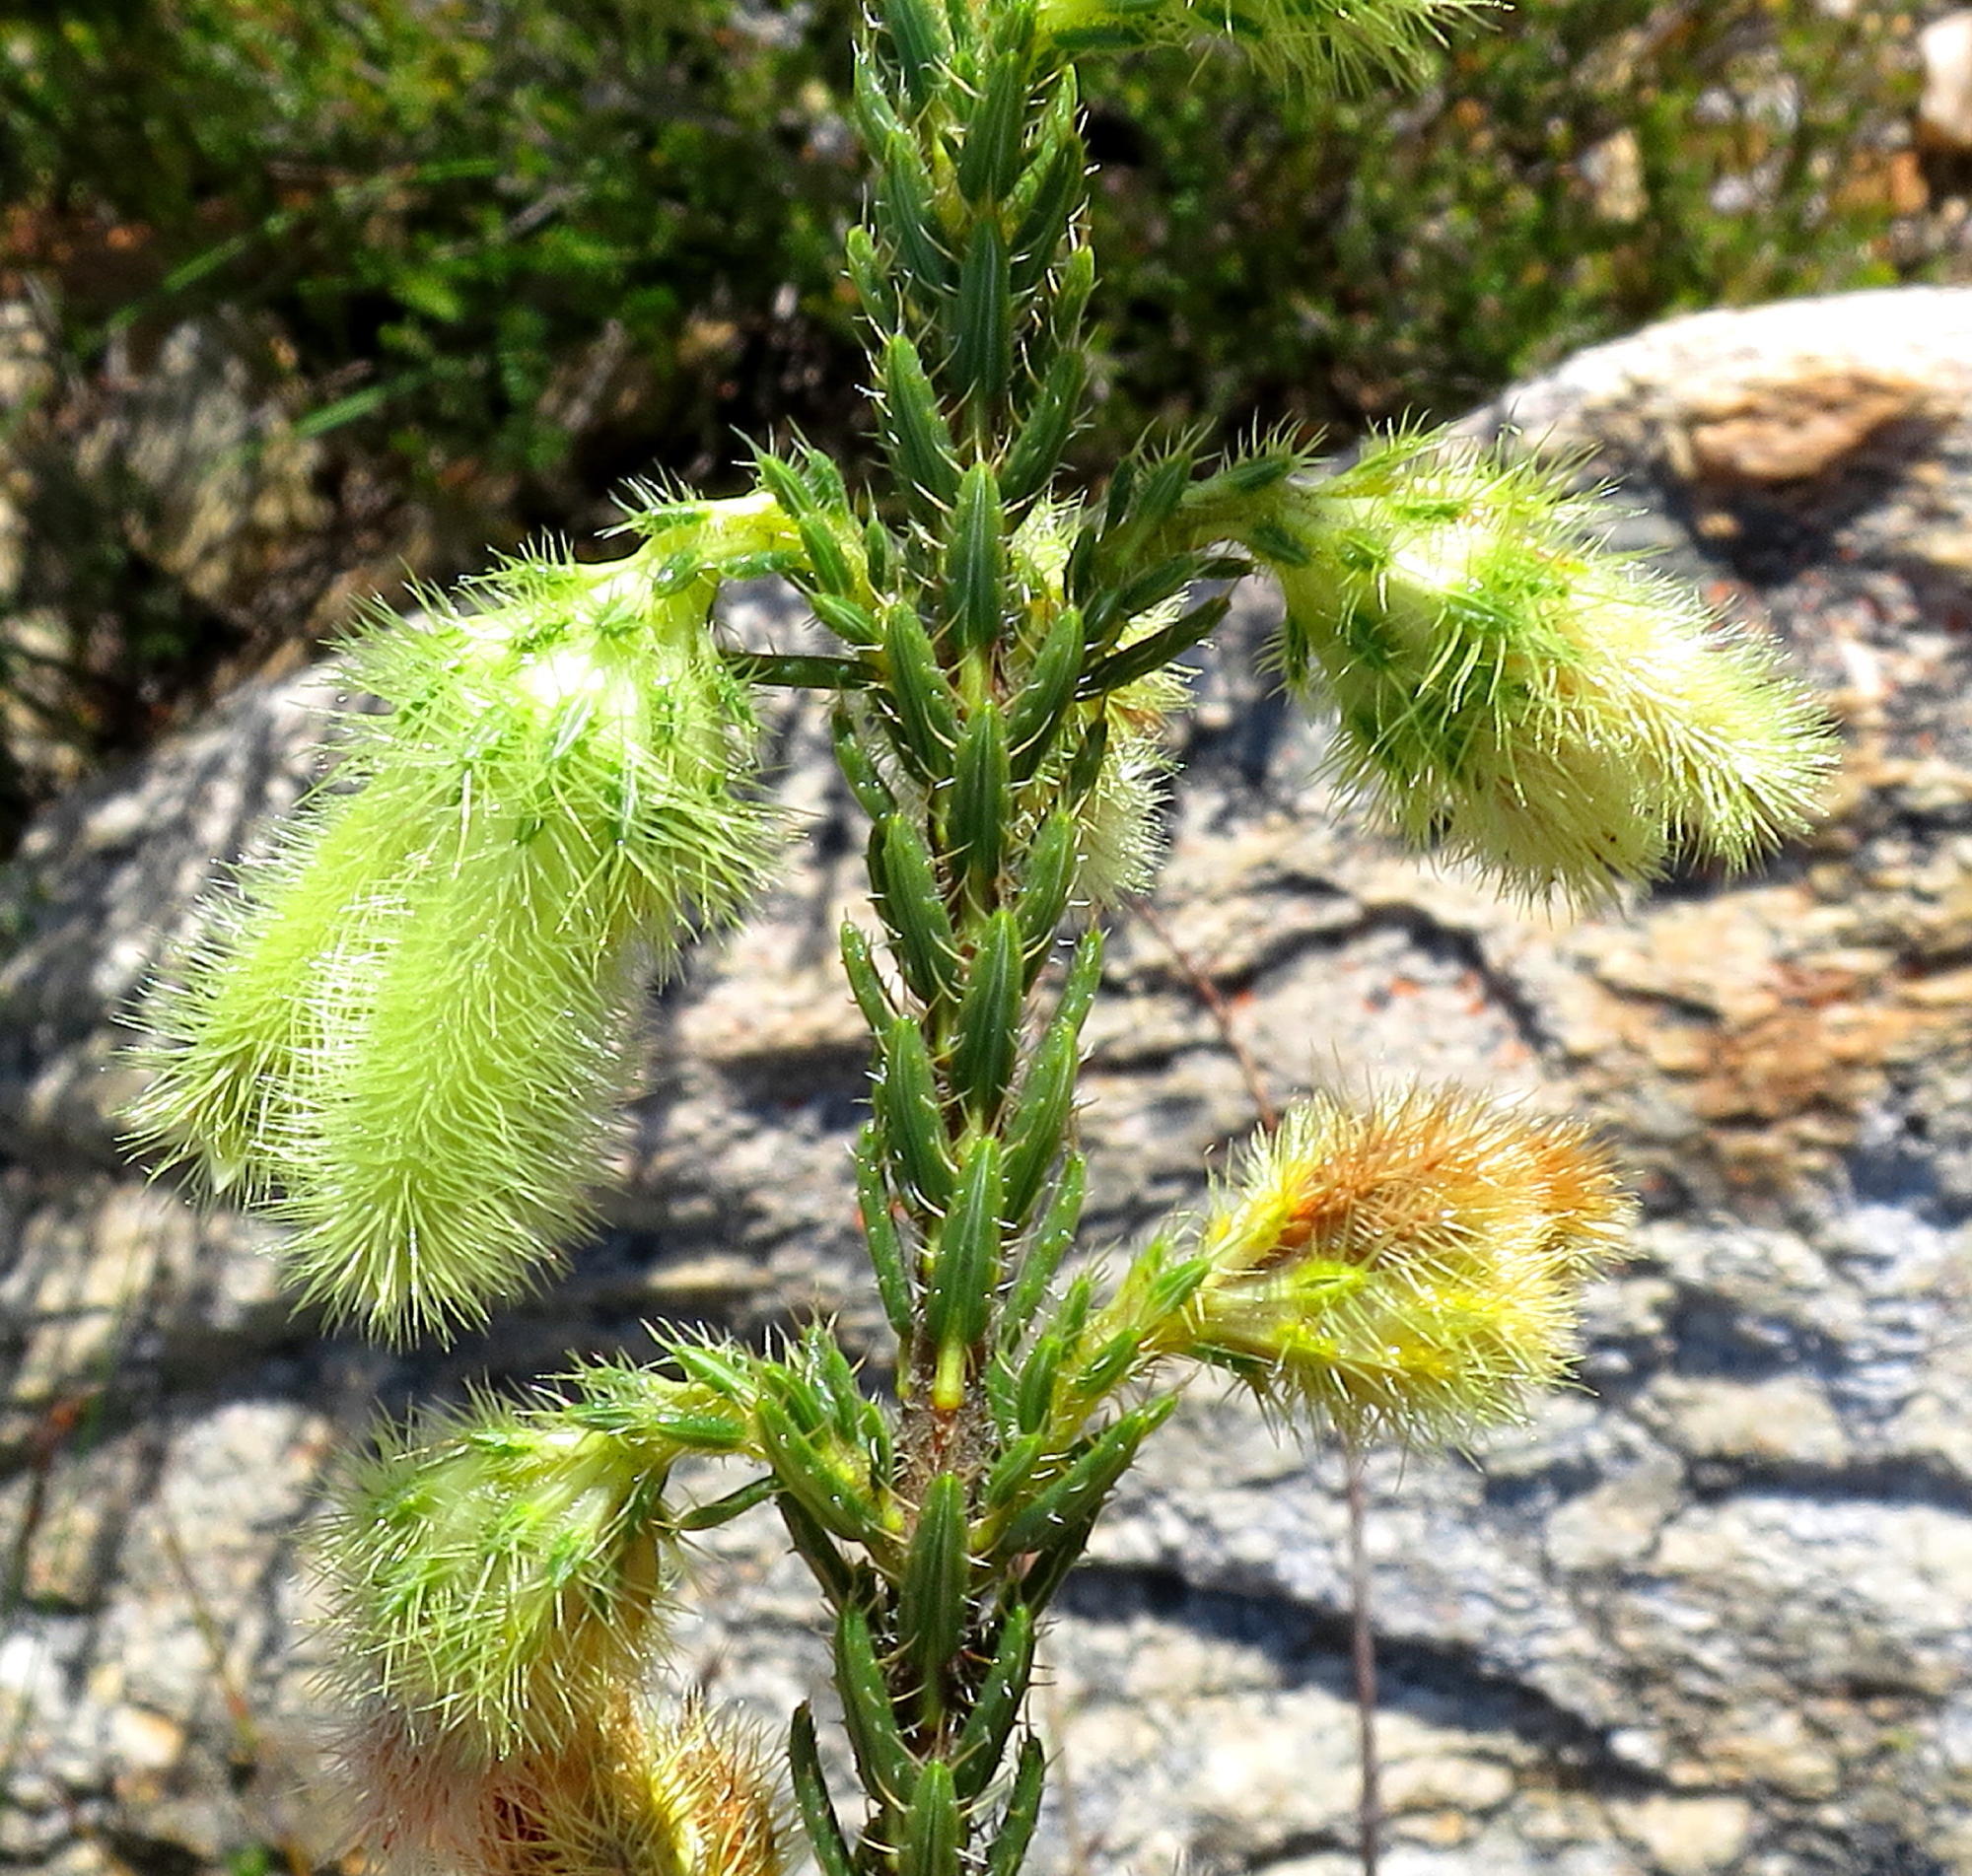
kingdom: Plantae
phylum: Tracheophyta
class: Magnoliopsida
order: Ericales
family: Ericaceae
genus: Erica
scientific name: Erica sparmannii
